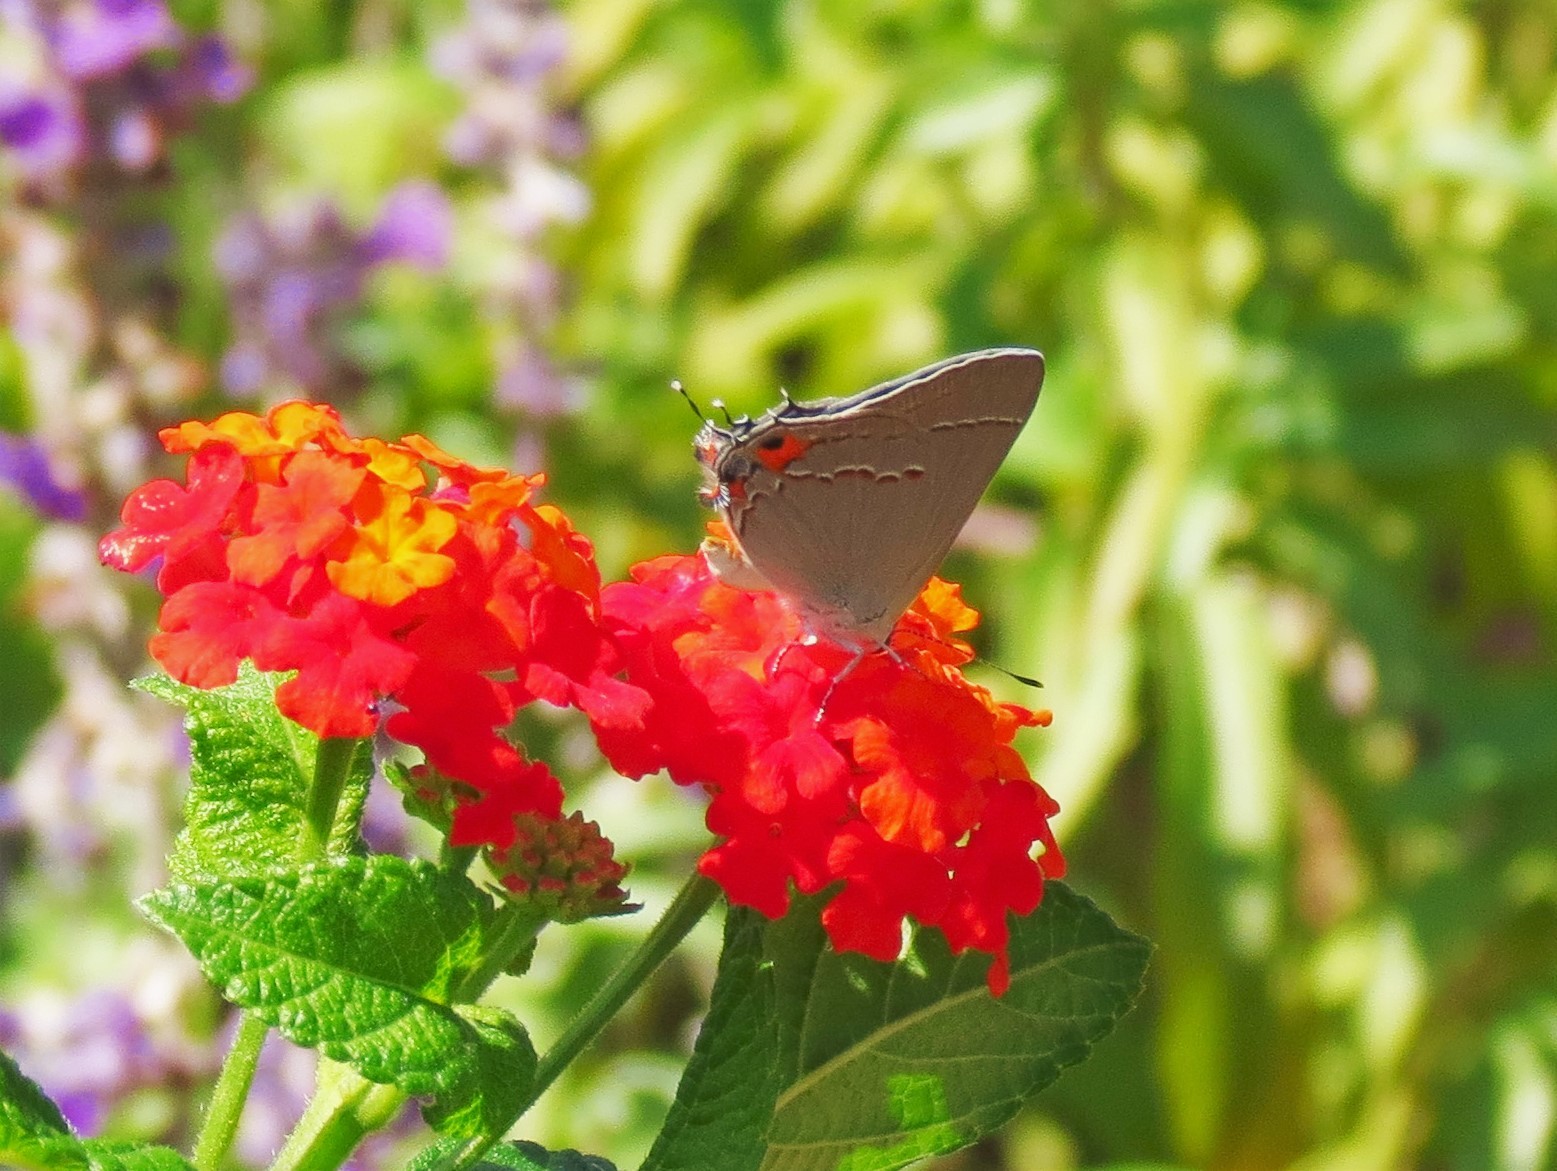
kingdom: Animalia
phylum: Arthropoda
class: Insecta
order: Lepidoptera
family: Lycaenidae
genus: Strymon
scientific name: Strymon melinus
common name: Gray hairstreak
